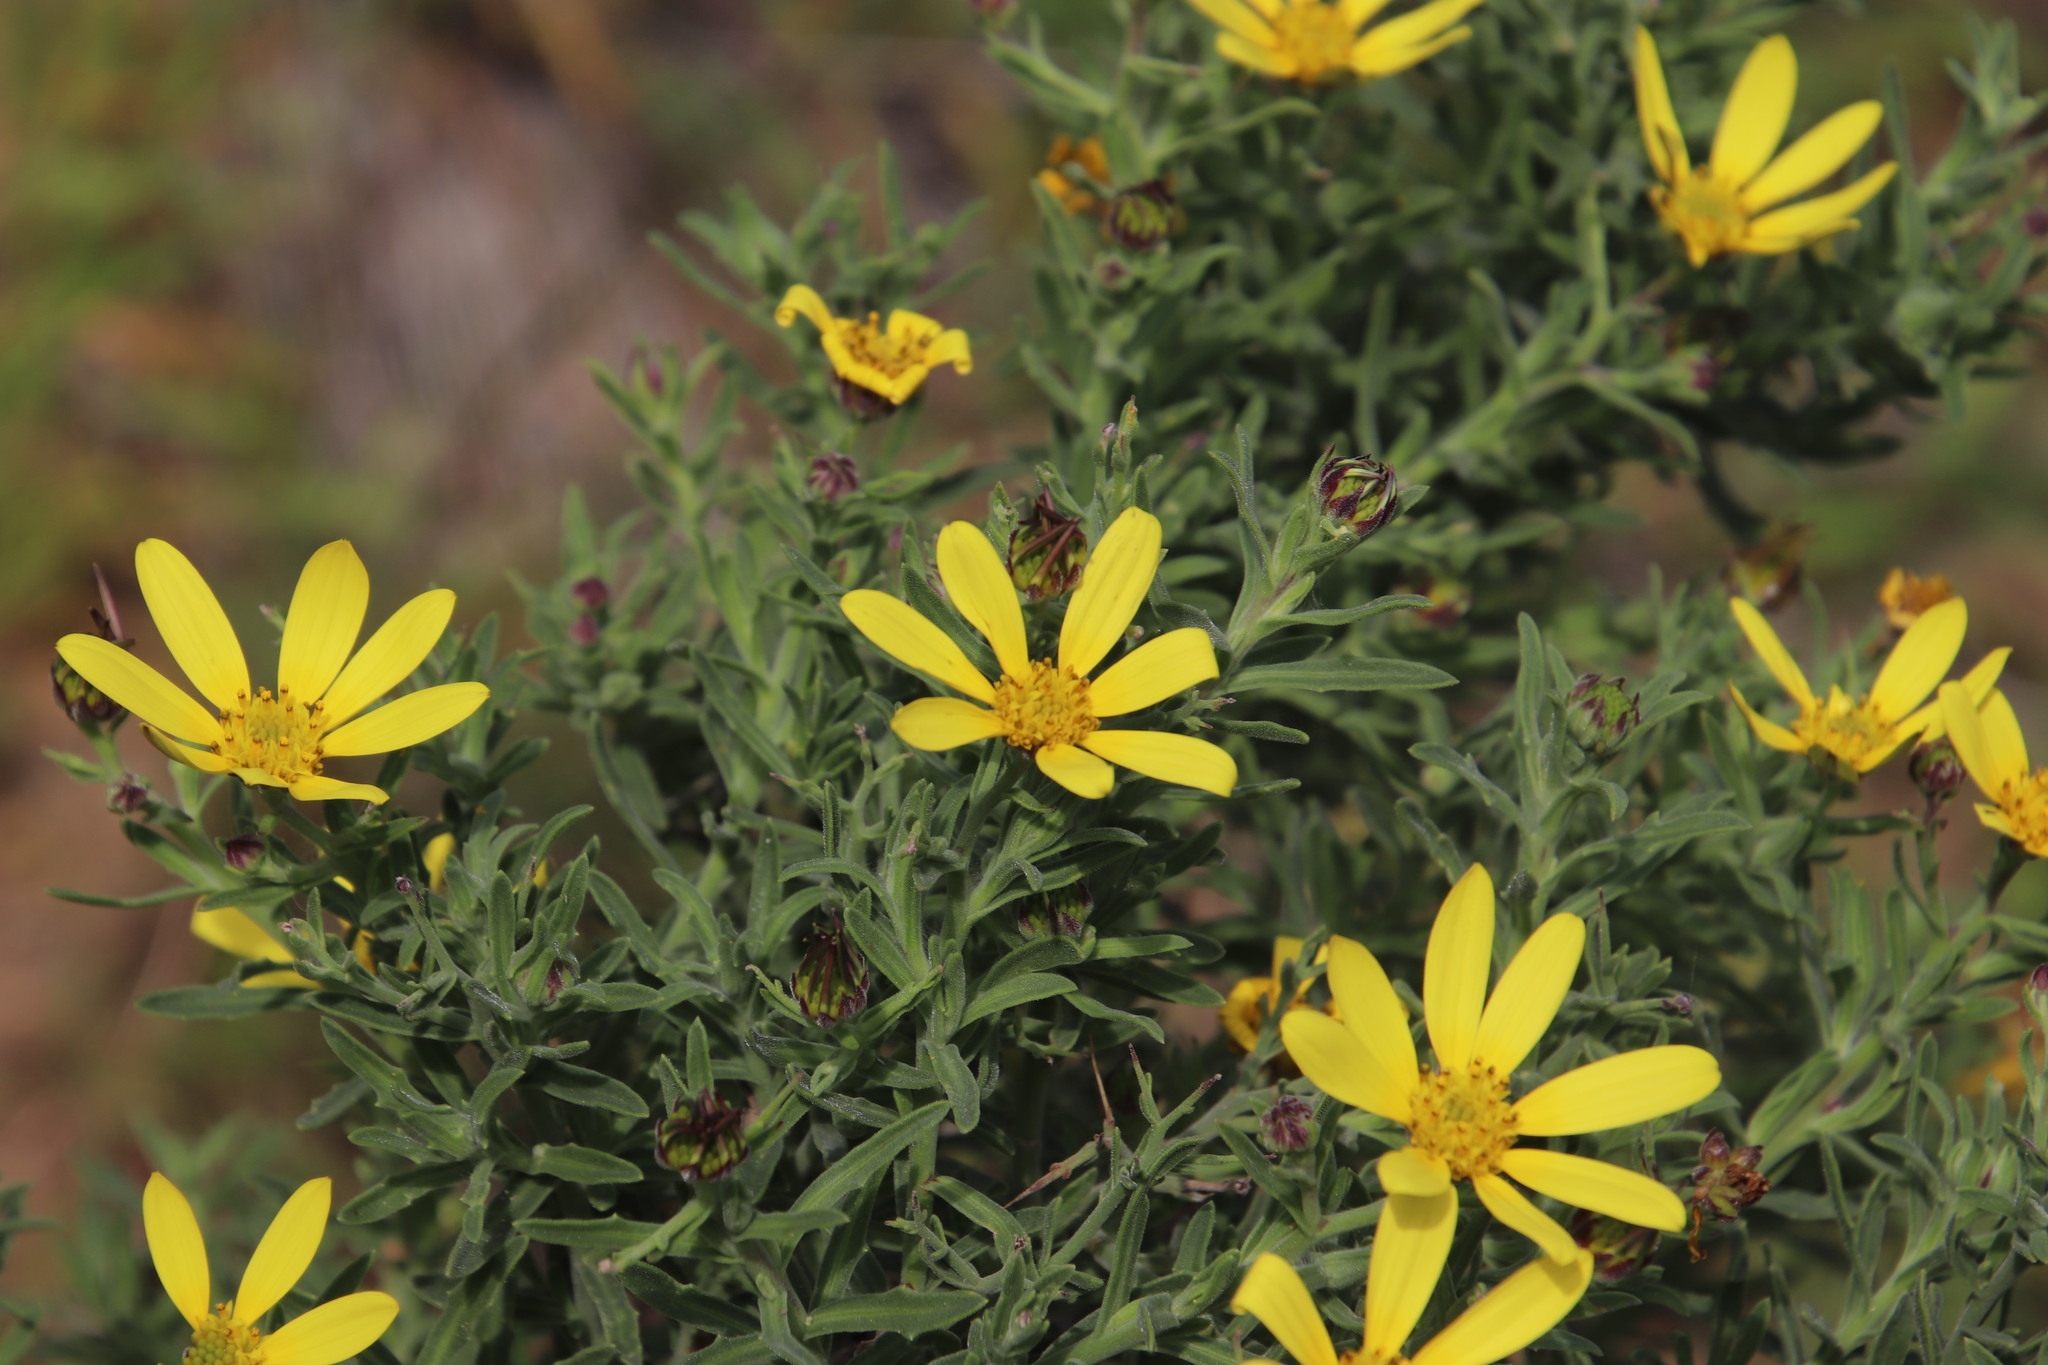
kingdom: Plantae
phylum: Tracheophyta
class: Magnoliopsida
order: Asterales
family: Asteraceae
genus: Osteospermum
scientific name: Osteospermum spinosum
